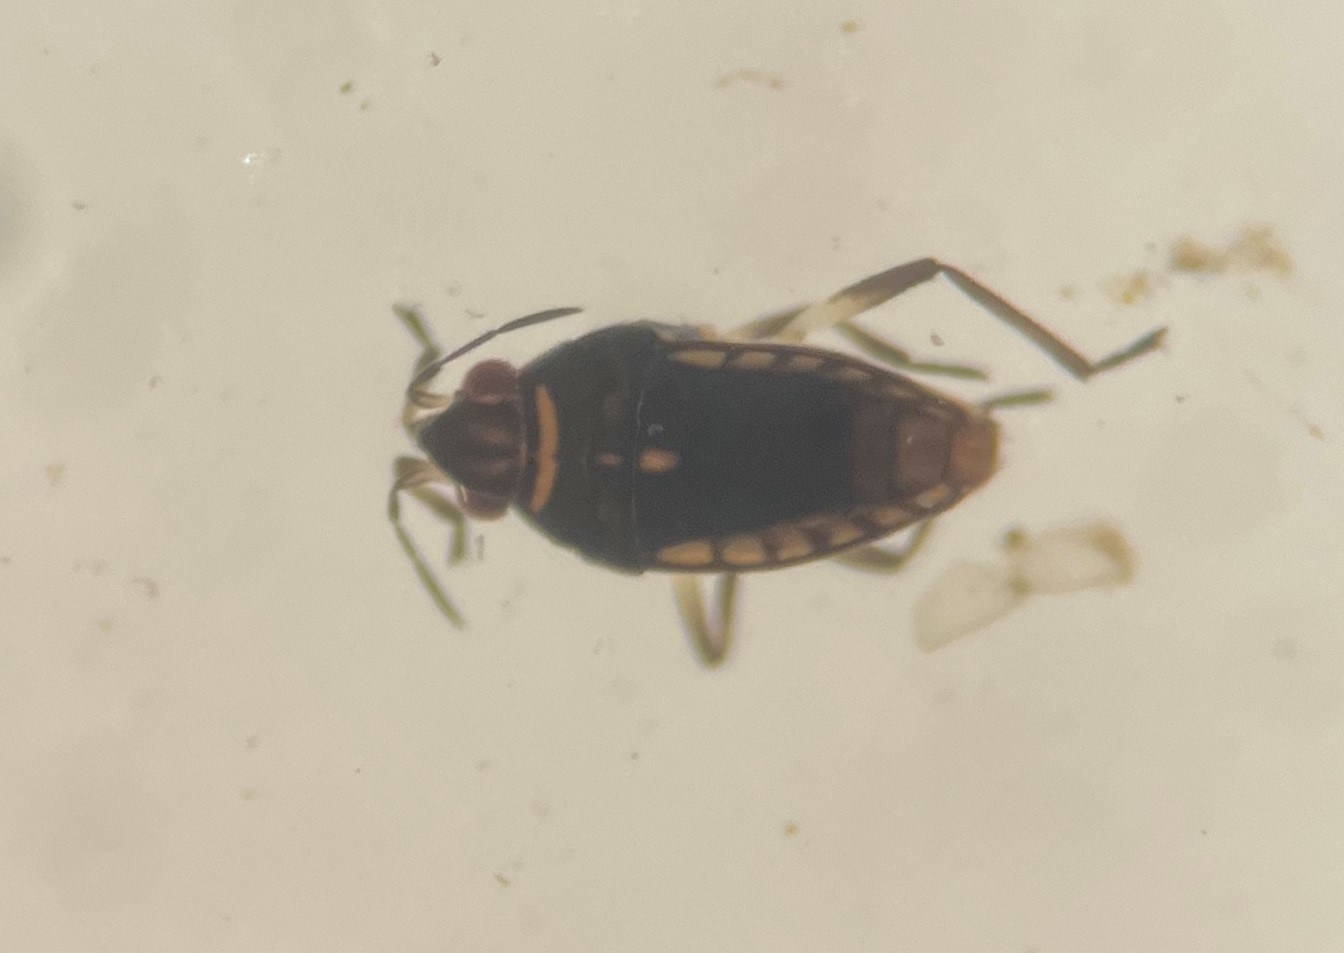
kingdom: Animalia
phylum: Arthropoda
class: Insecta
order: Hemiptera
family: Veliidae
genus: Microvelia
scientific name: Microvelia hinei
